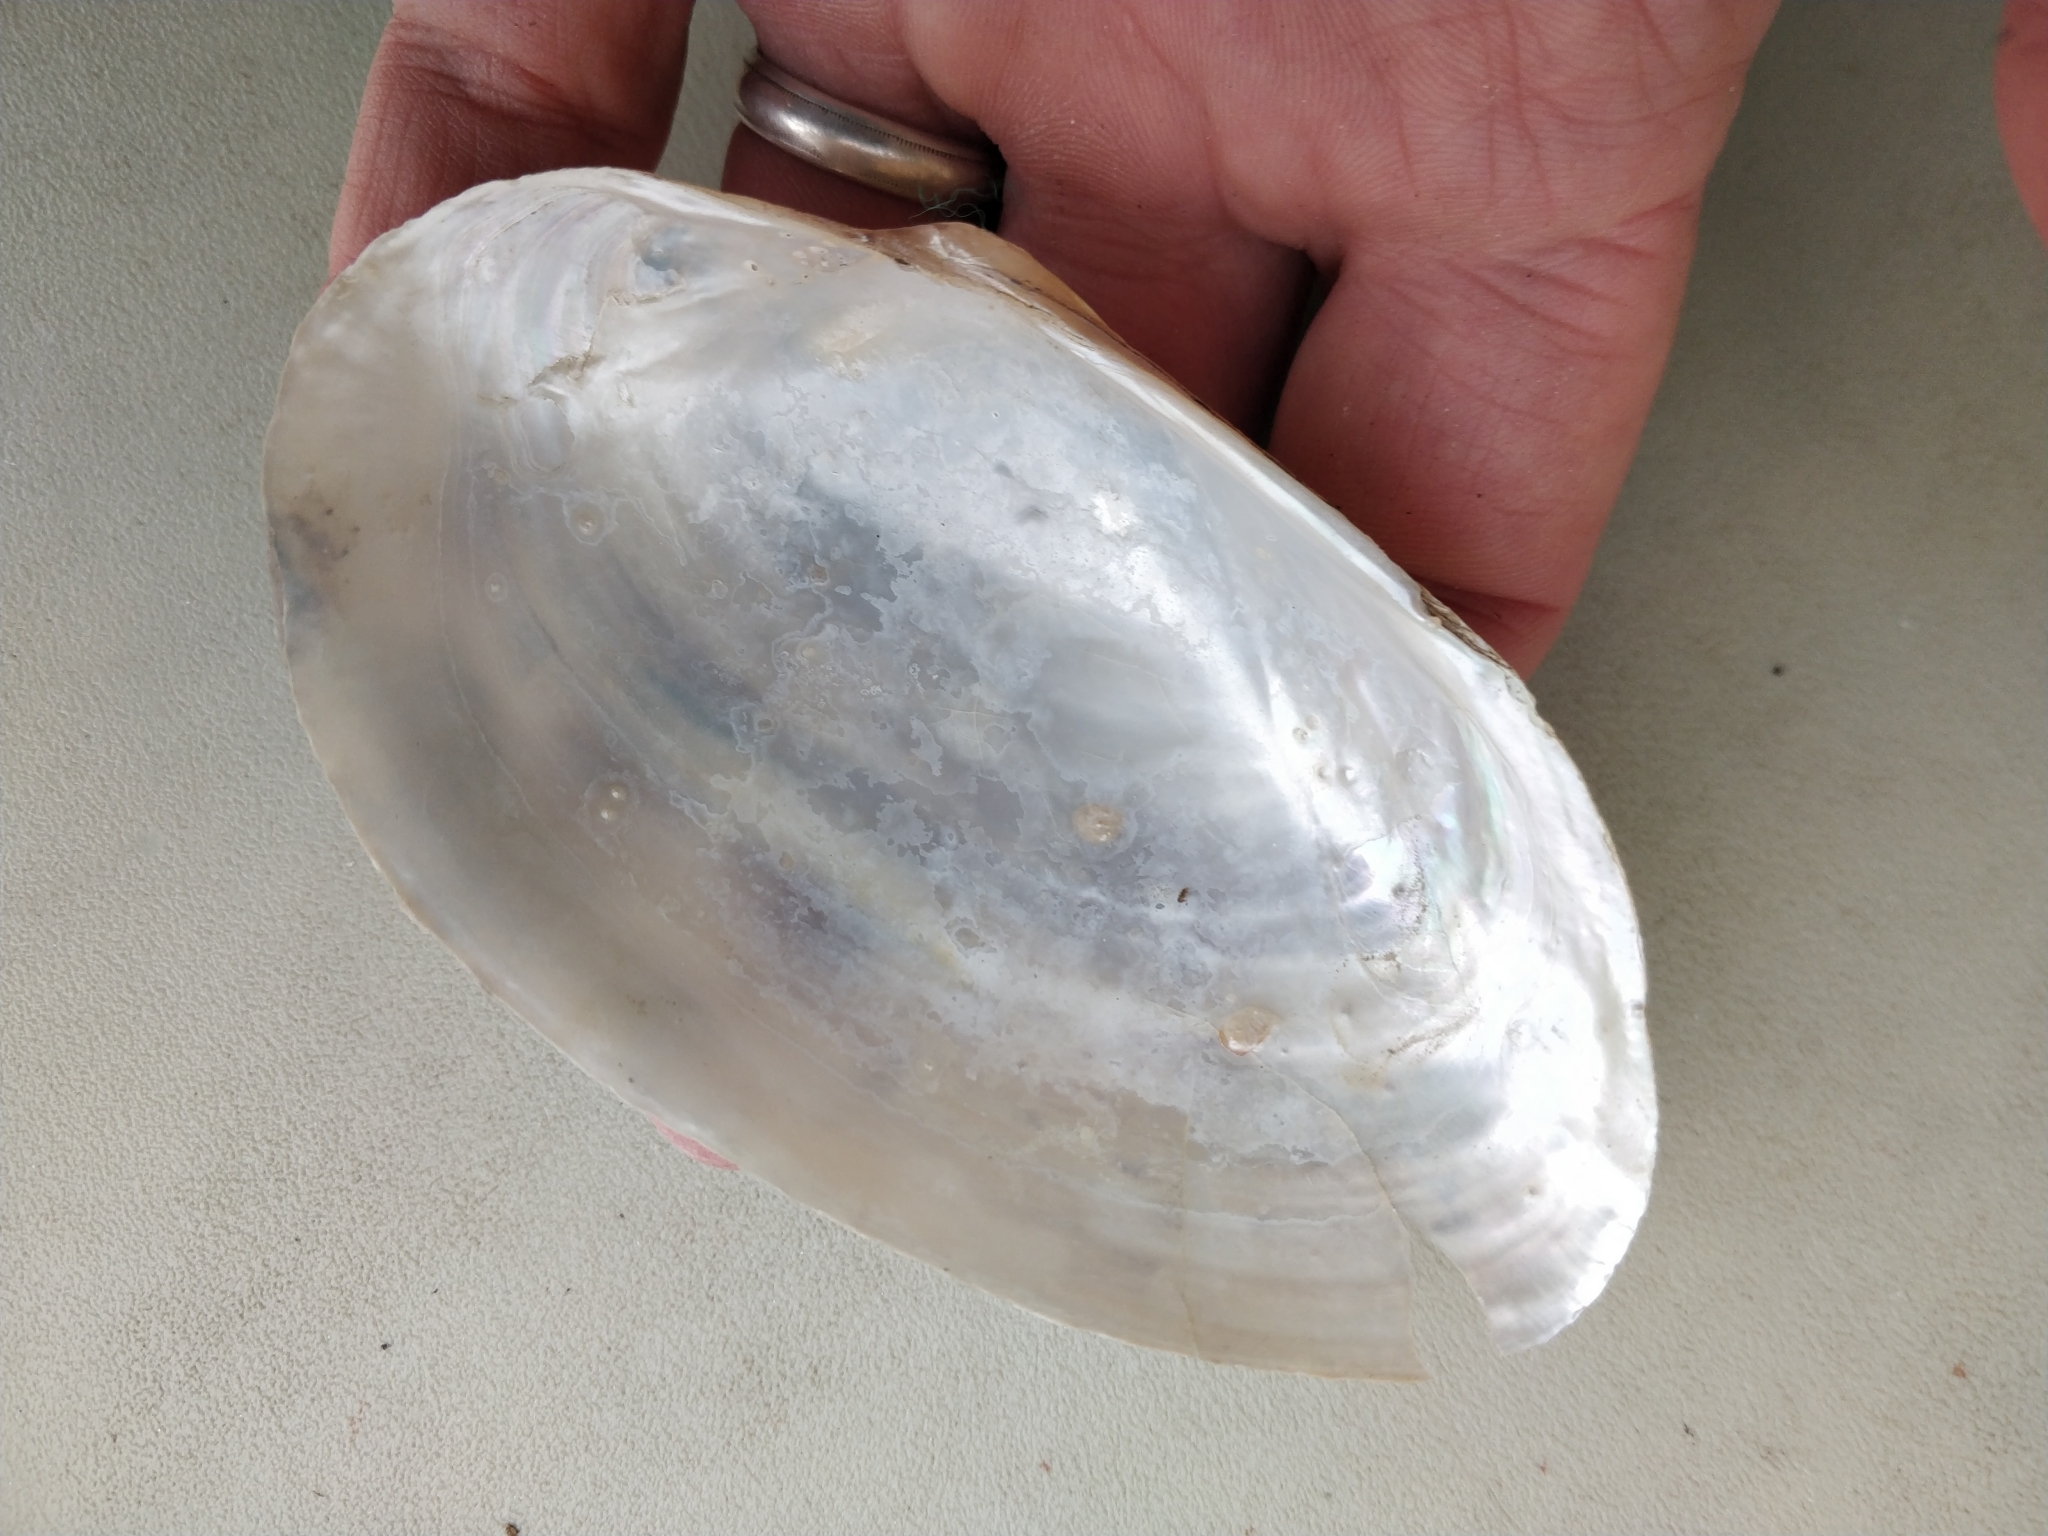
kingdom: Animalia
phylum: Mollusca
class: Bivalvia
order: Unionida
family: Unionidae
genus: Pyganodon
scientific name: Pyganodon grandis
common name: Giant floater
